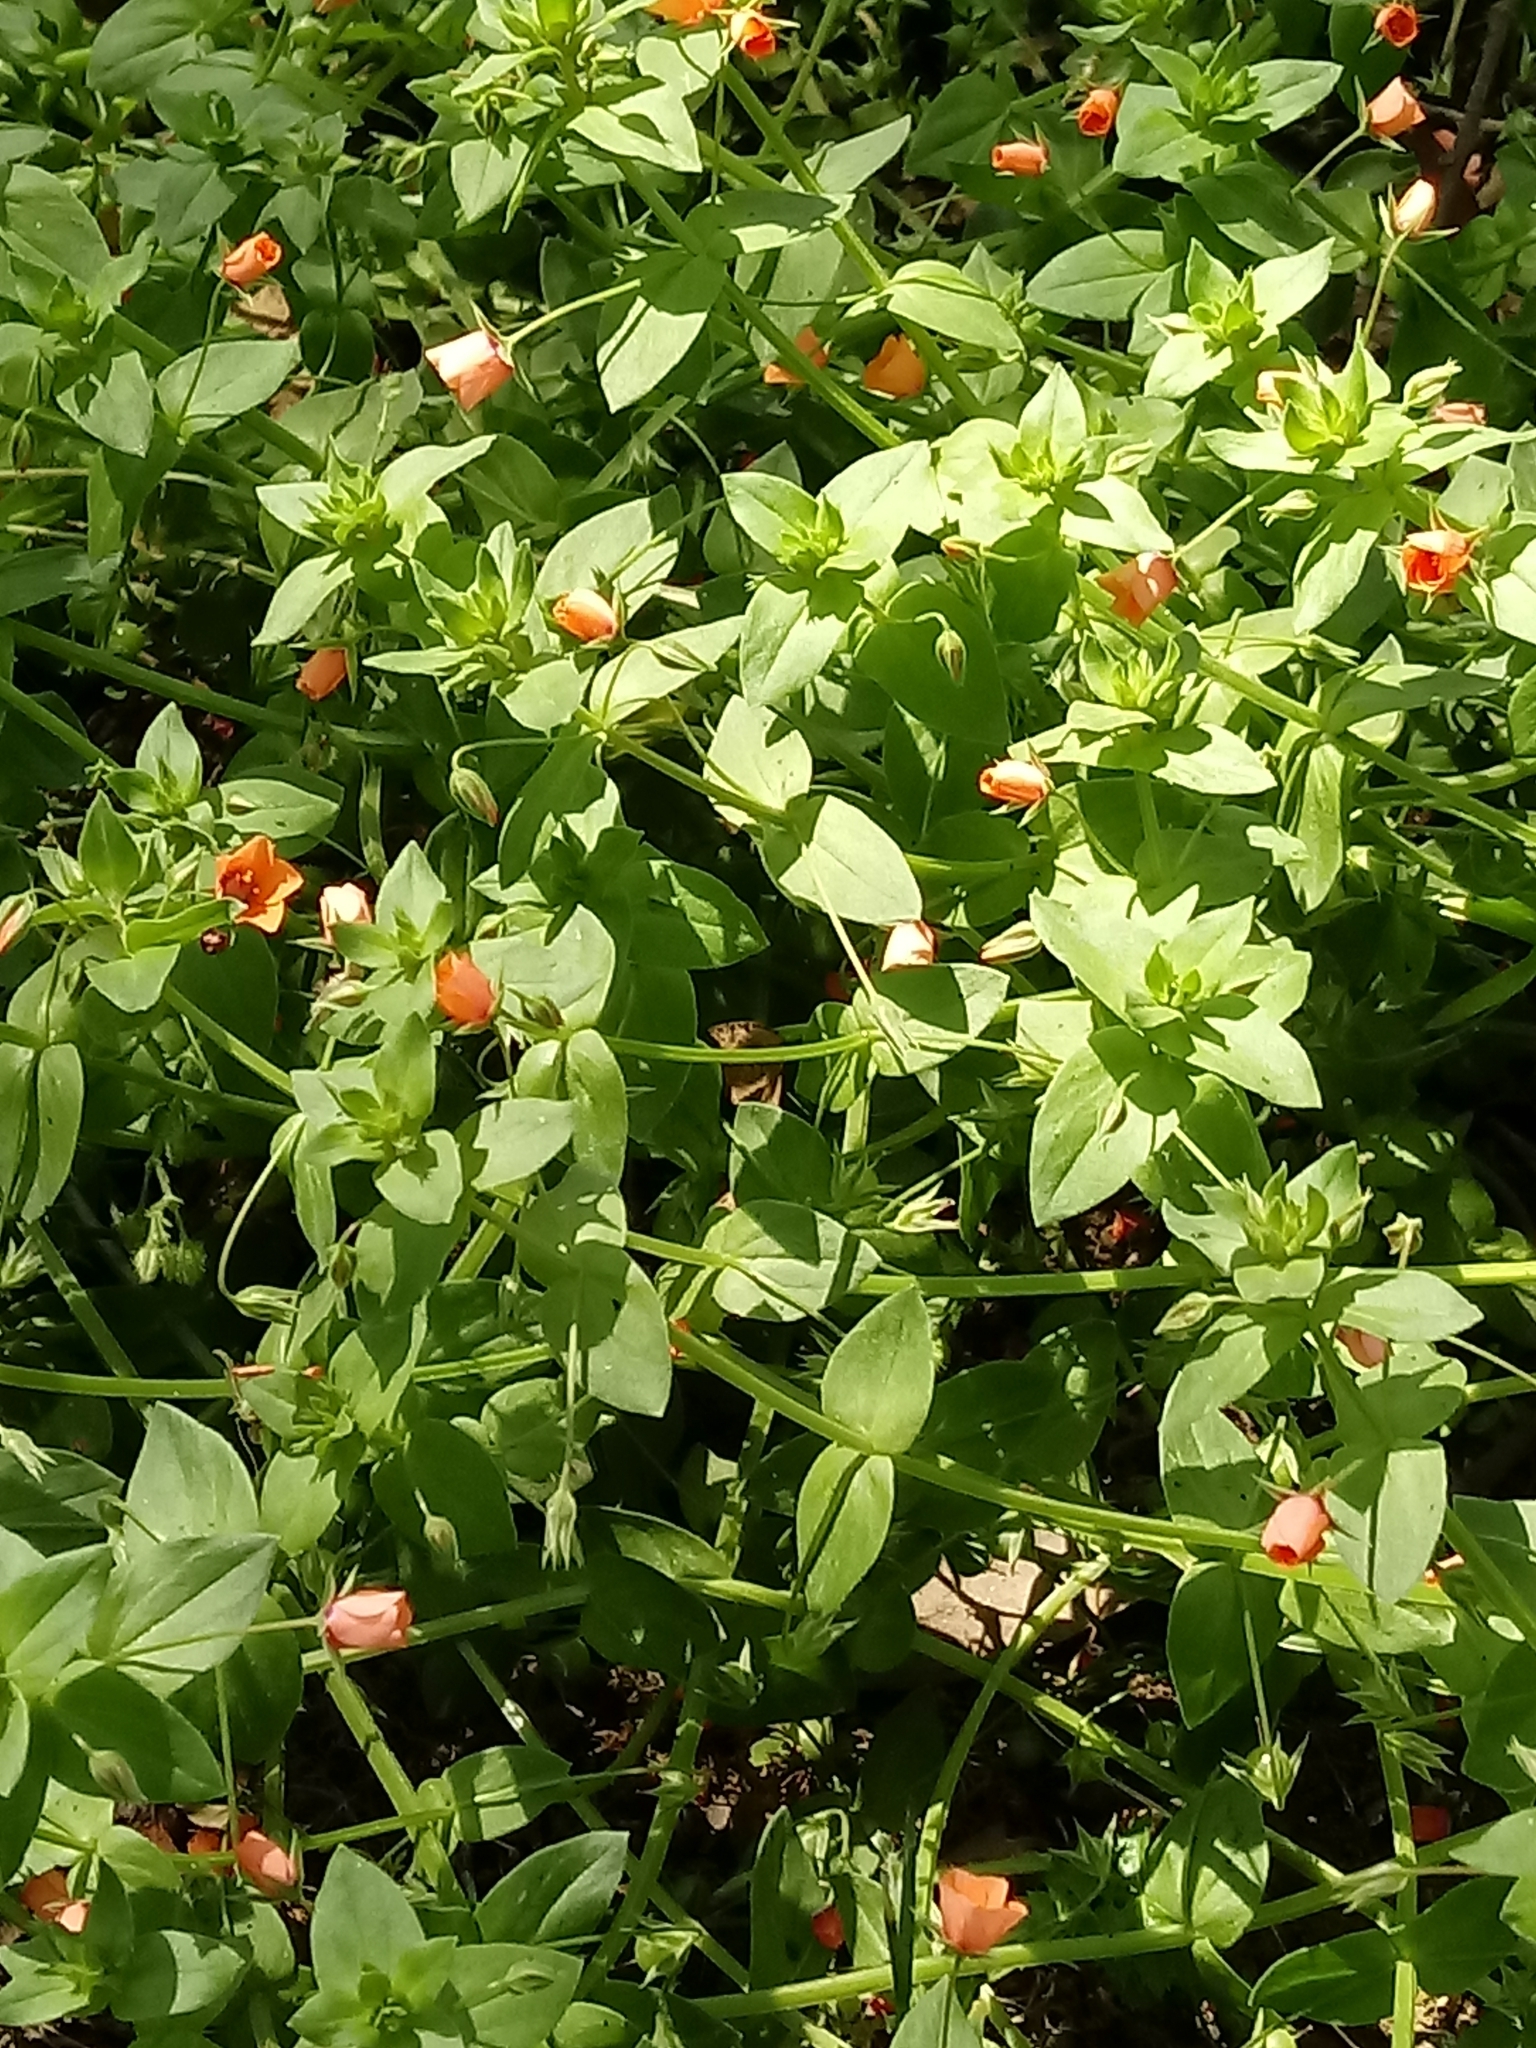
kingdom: Plantae
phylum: Tracheophyta
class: Magnoliopsida
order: Ericales
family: Primulaceae
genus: Lysimachia
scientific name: Lysimachia arvensis
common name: Scarlet pimpernel
